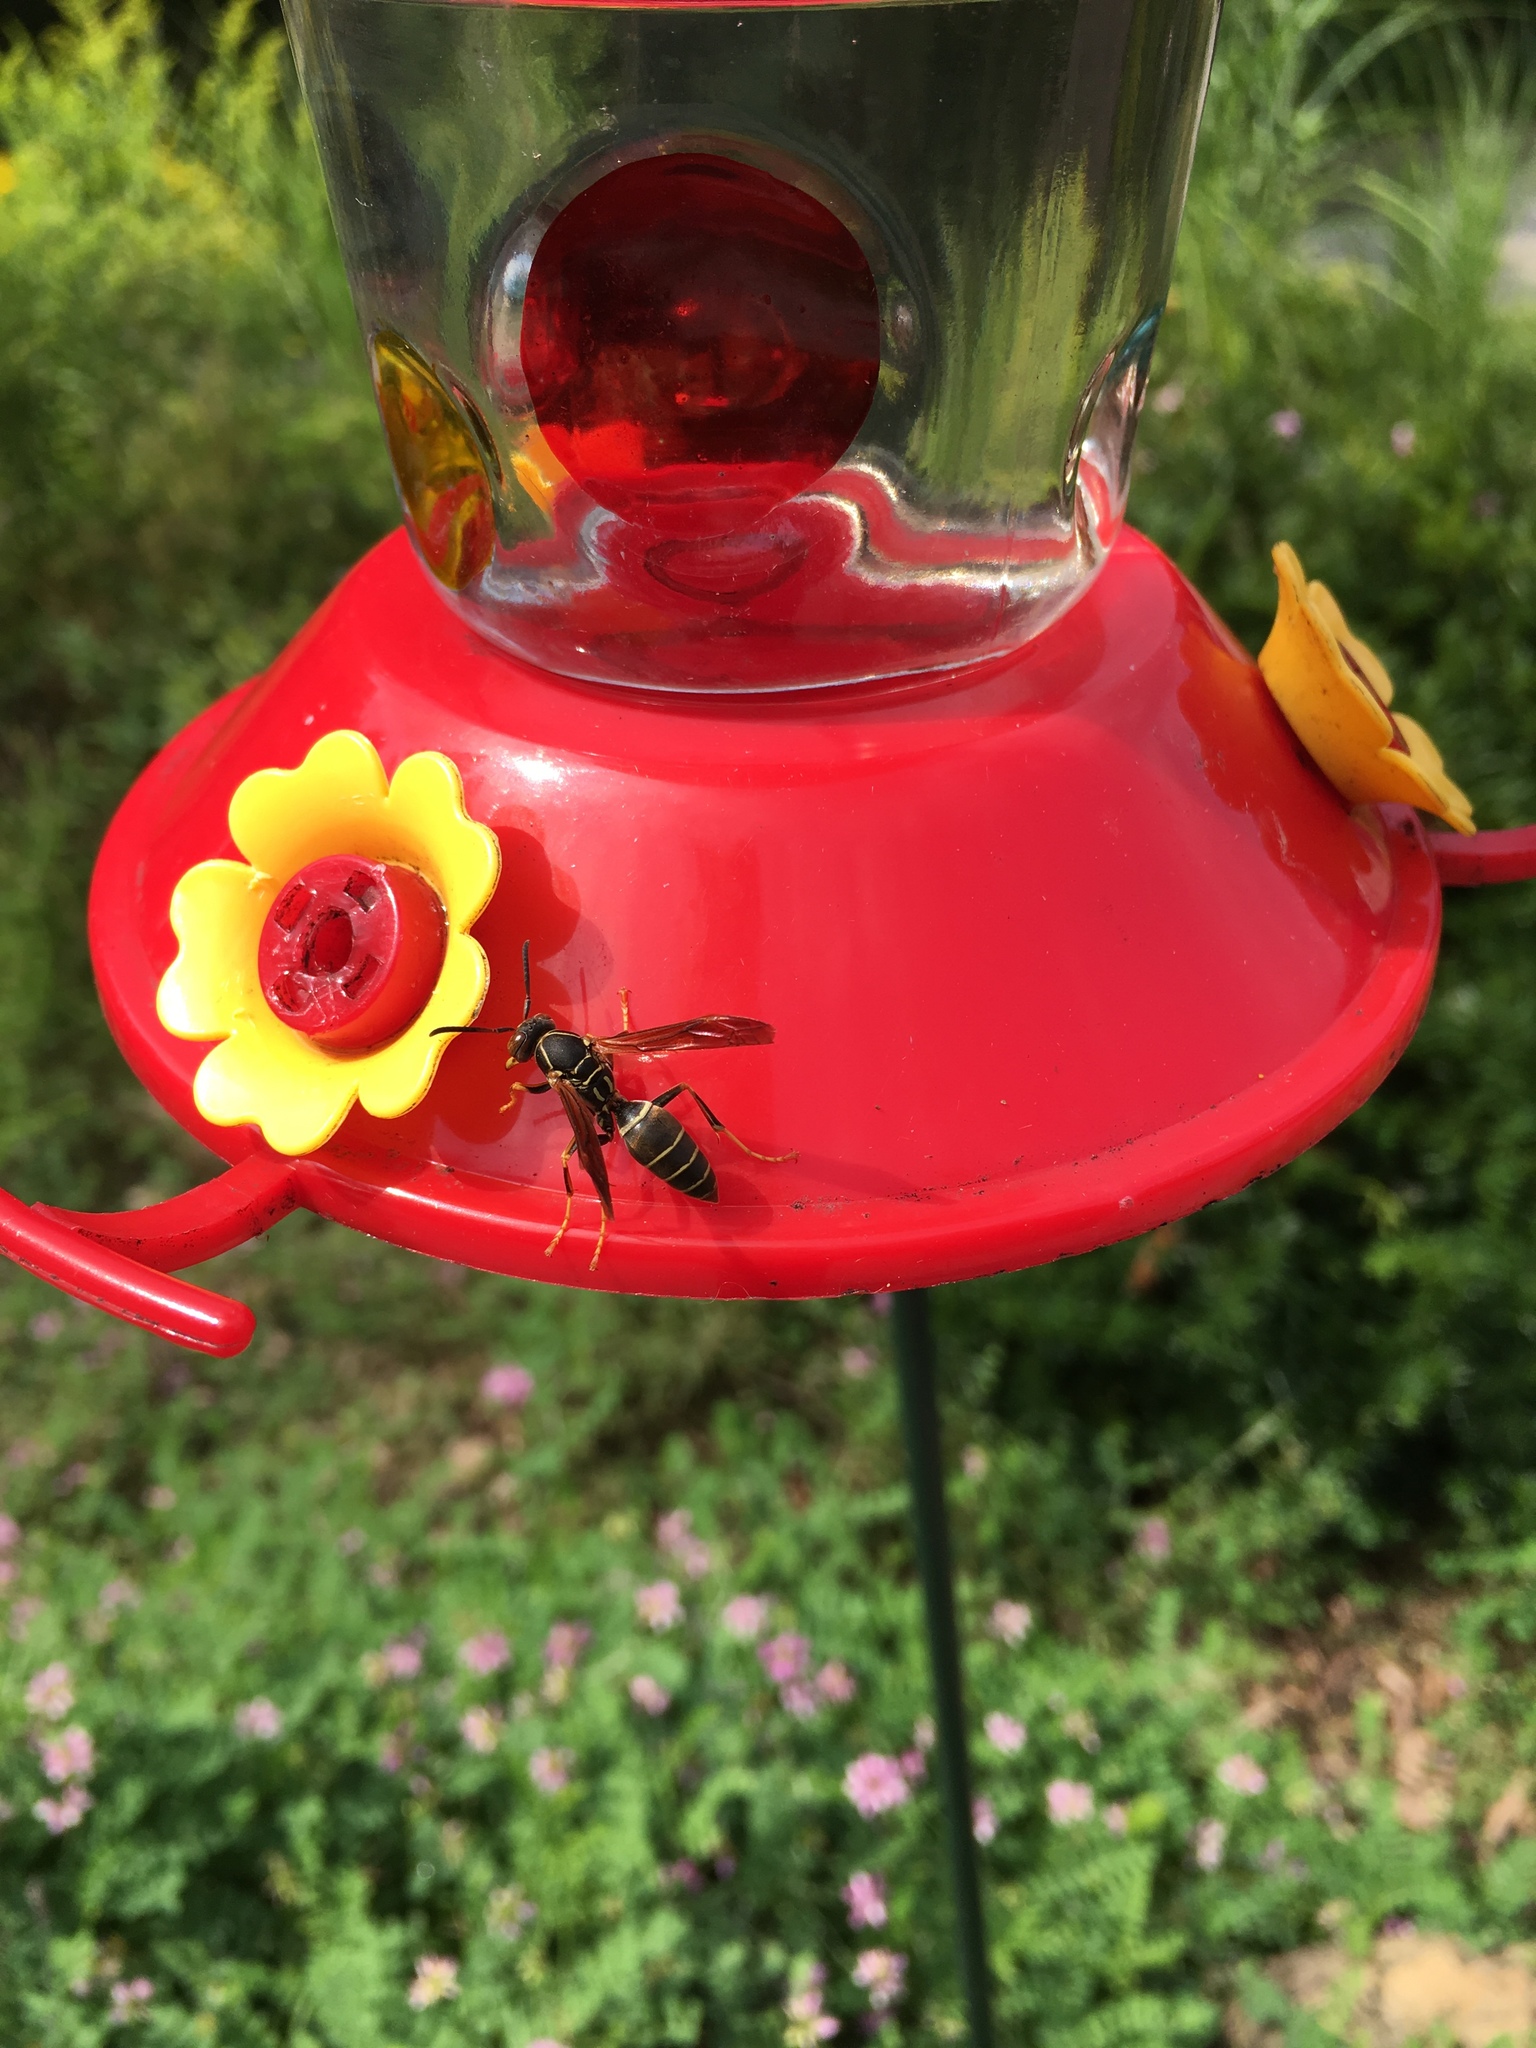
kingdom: Animalia
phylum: Arthropoda
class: Insecta
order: Hymenoptera
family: Eumenidae
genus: Polistes
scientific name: Polistes fuscatus
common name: Dark paper wasp
